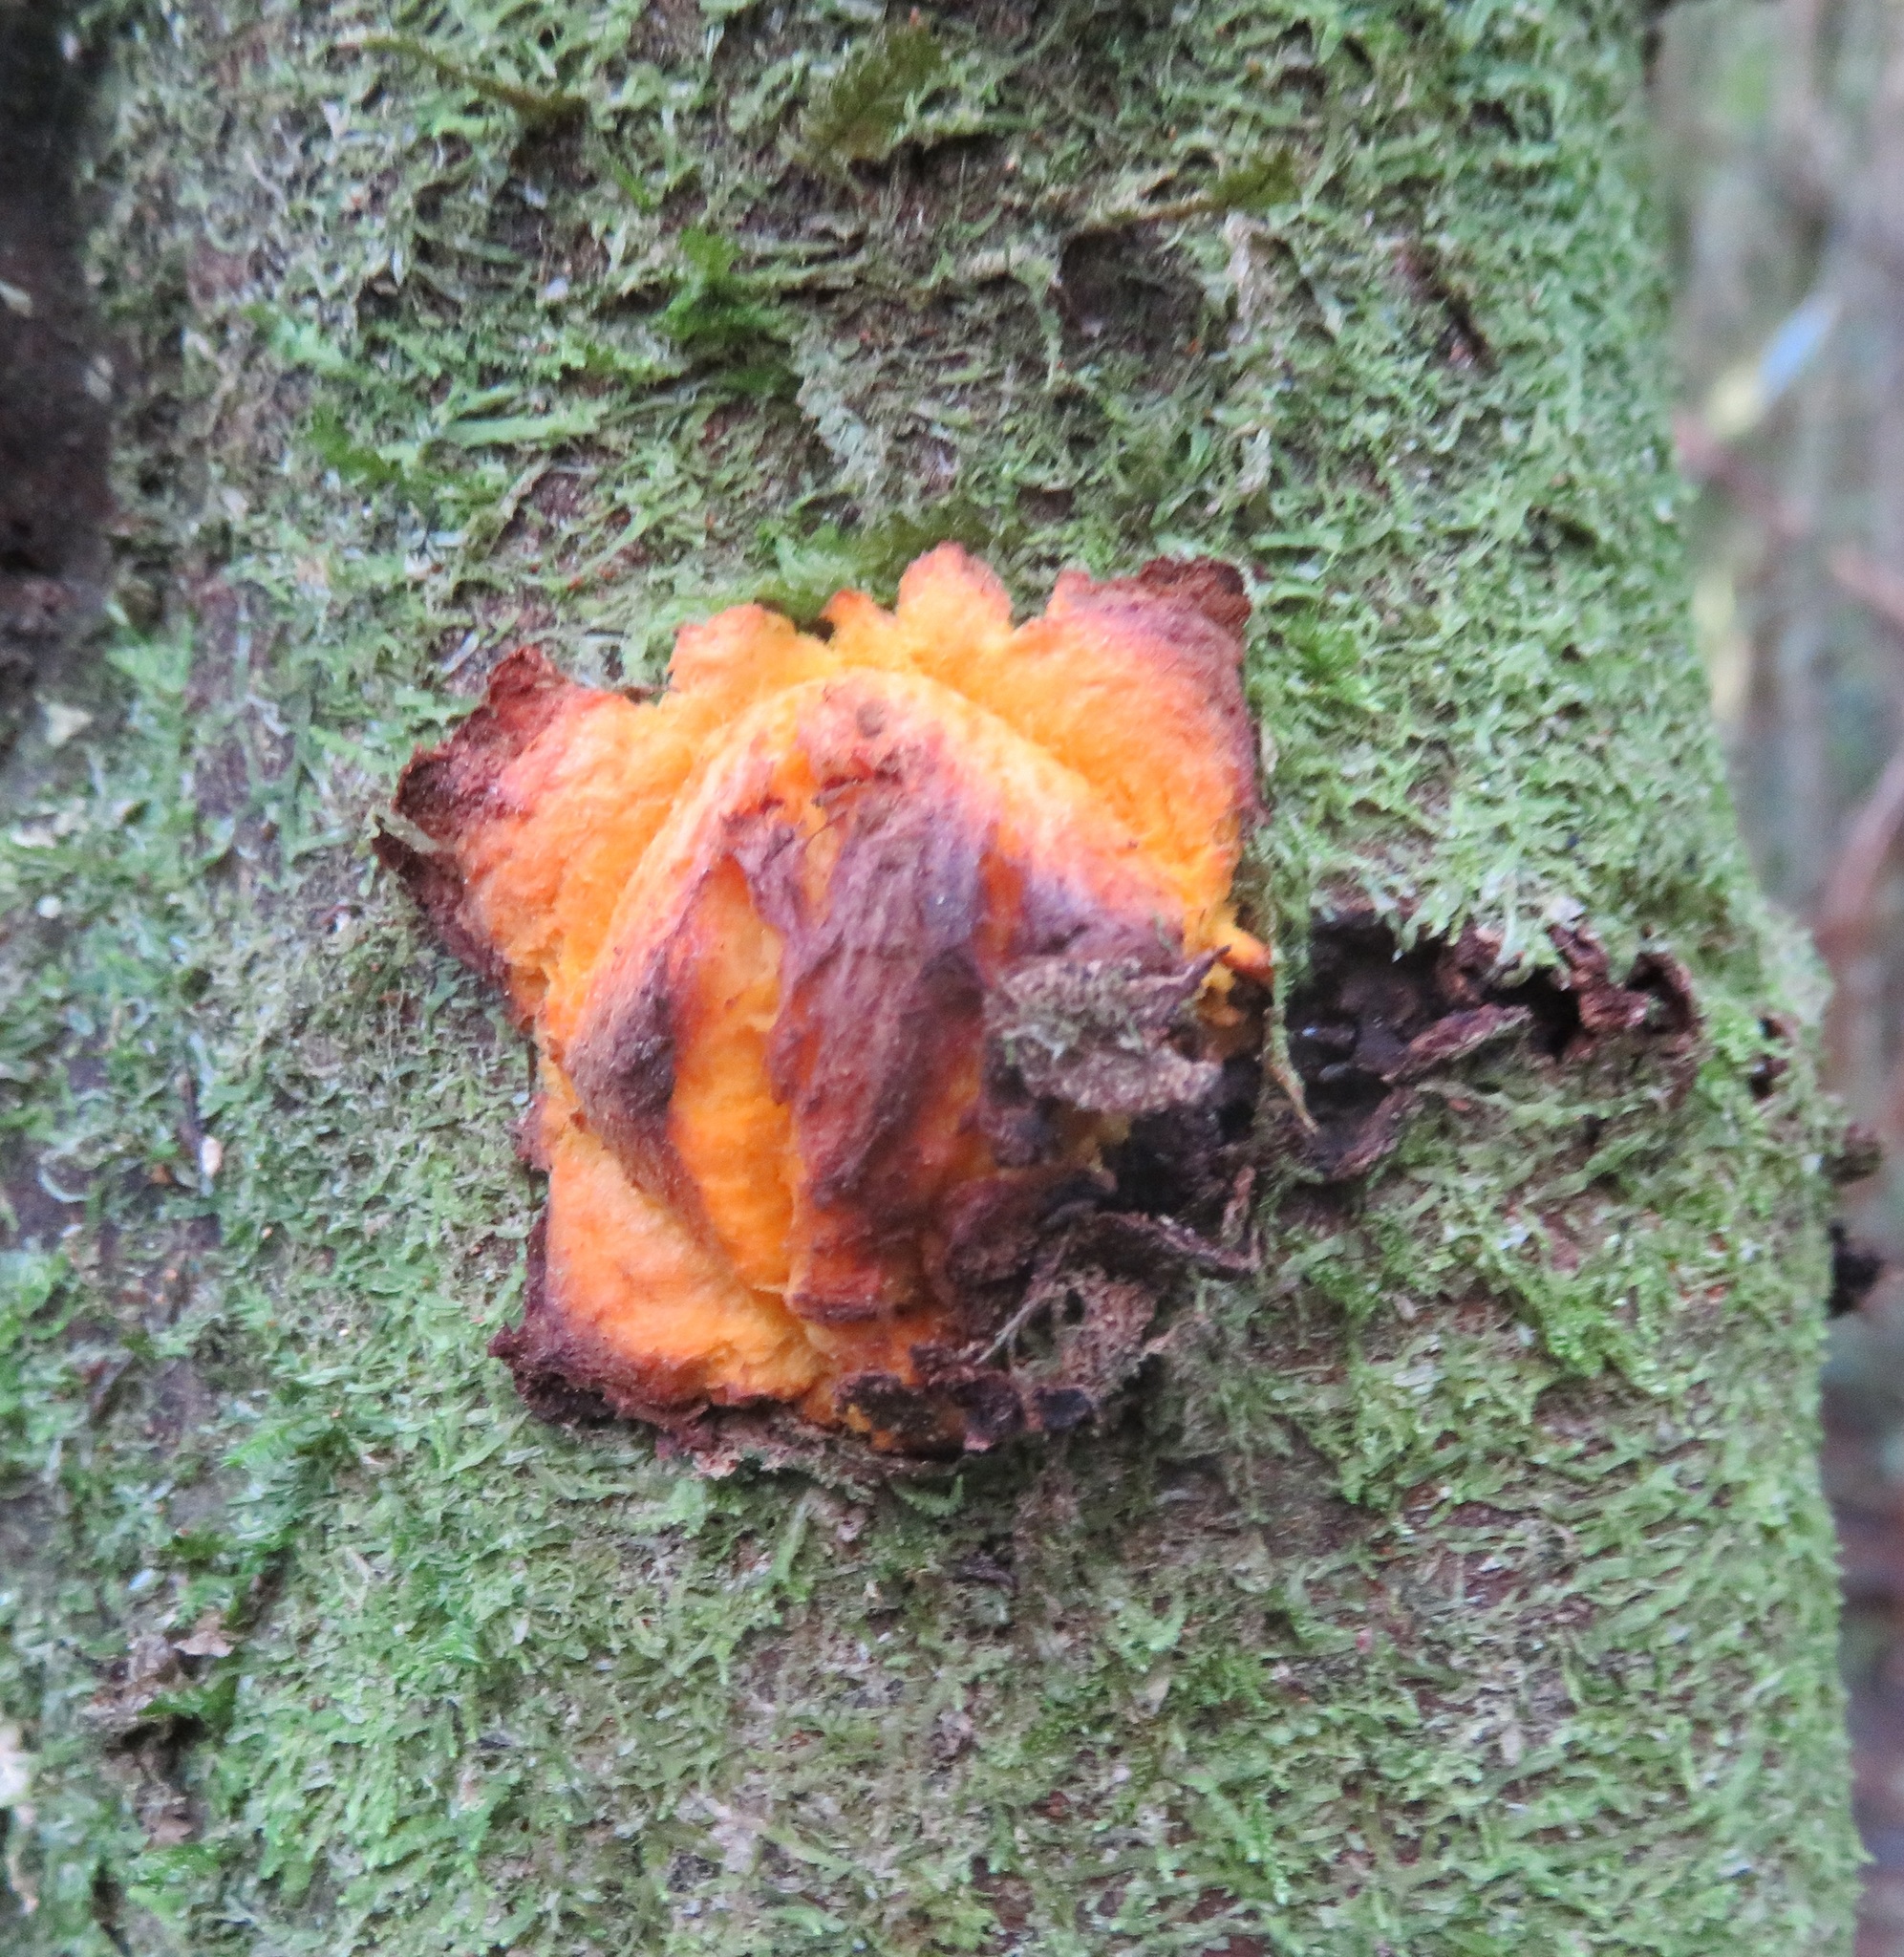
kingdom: Plantae
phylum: Tracheophyta
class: Magnoliopsida
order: Gentianales
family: Rubiaceae
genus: Coprosma
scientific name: Coprosma autumnalis
